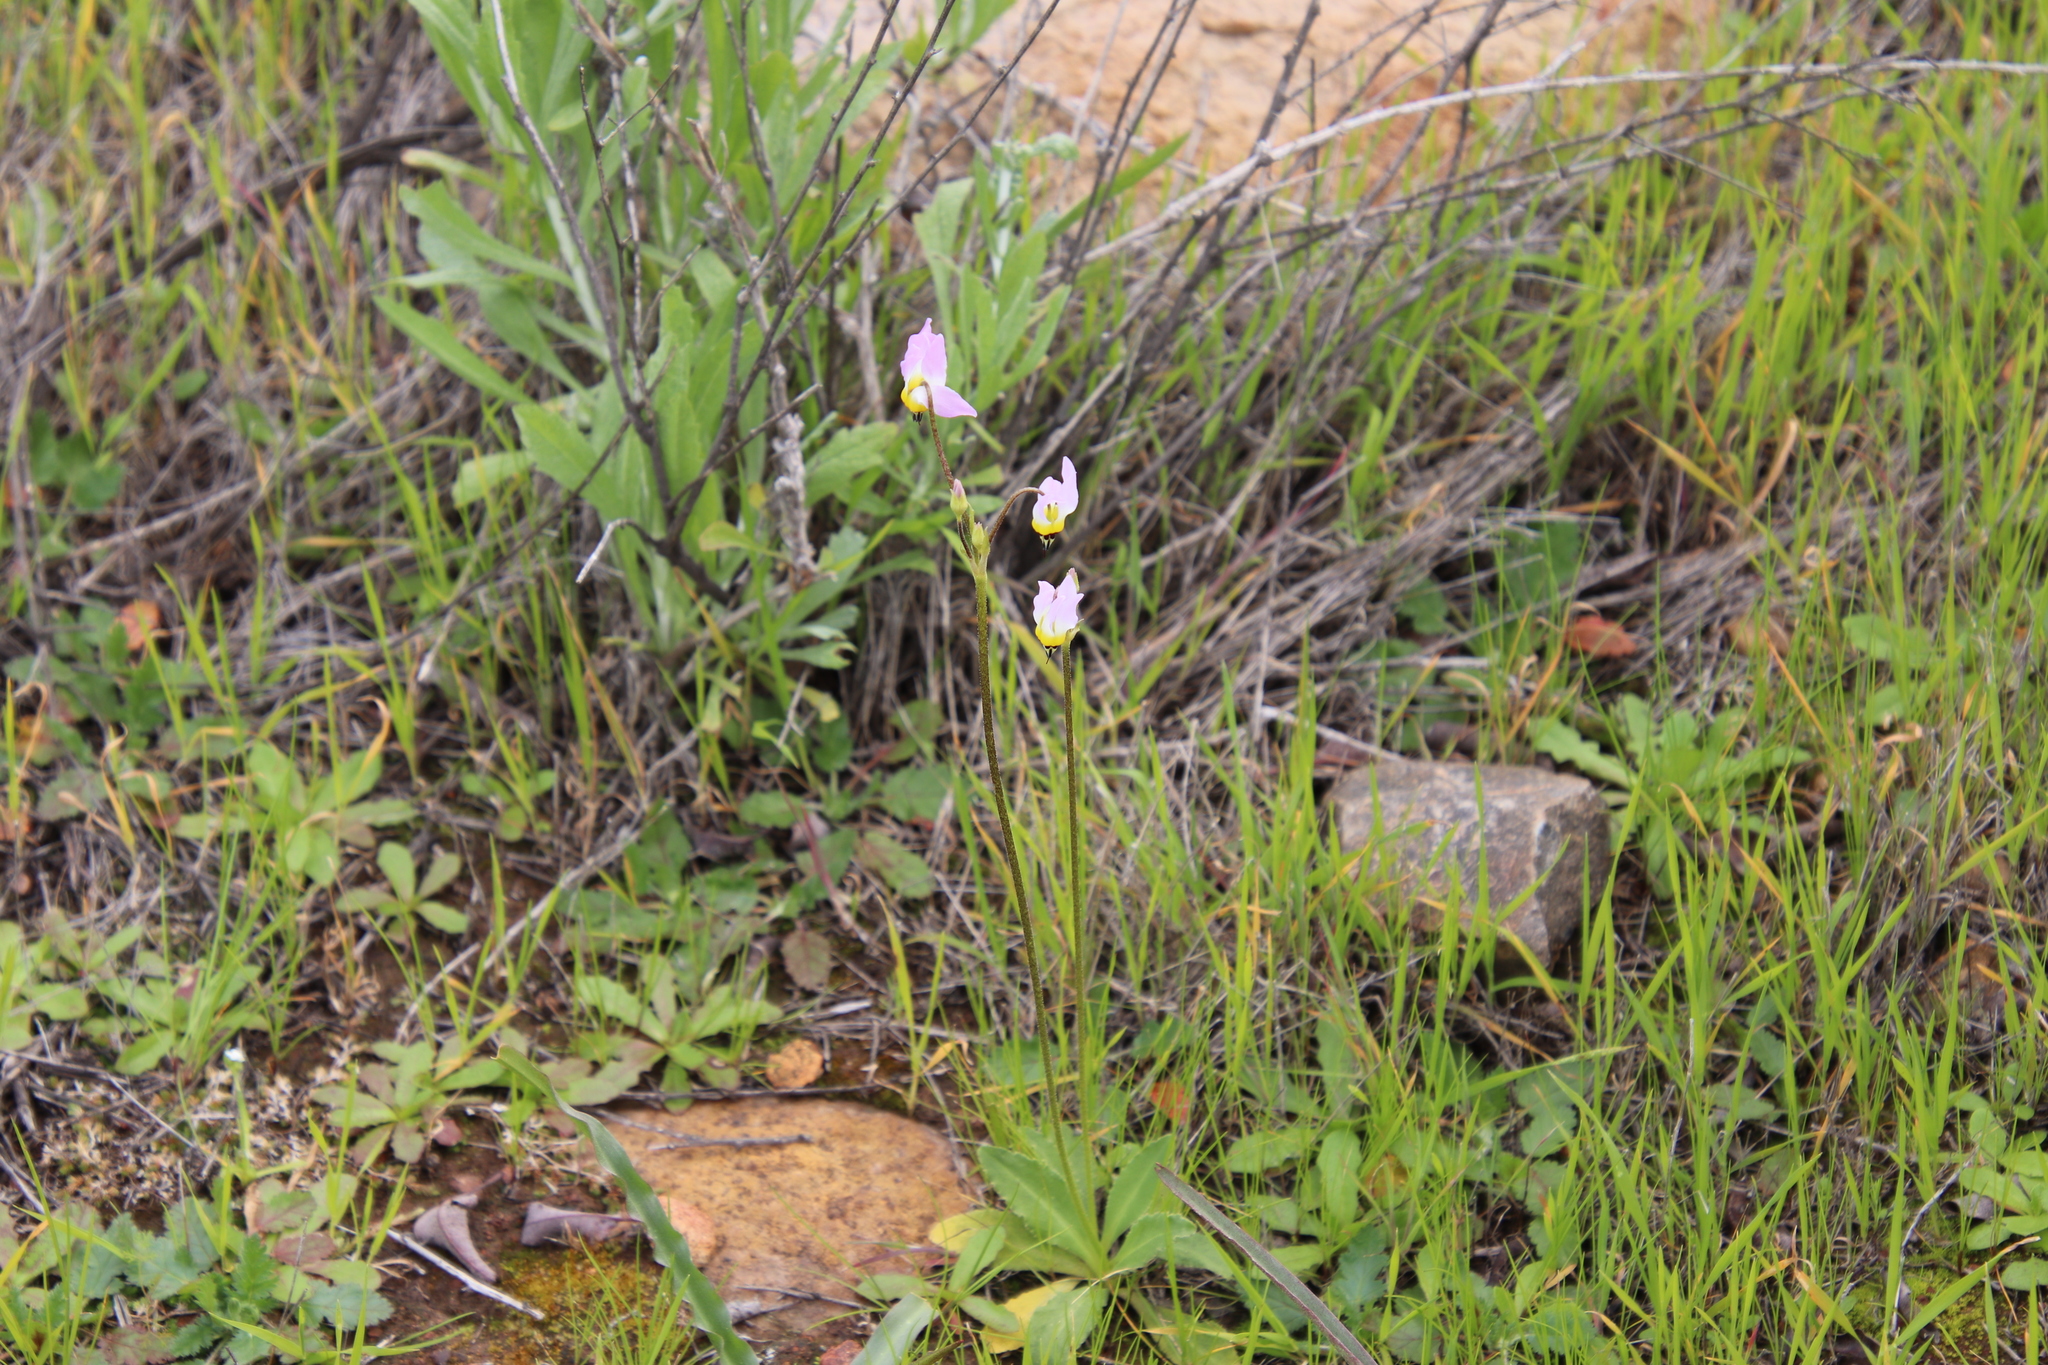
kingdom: Plantae
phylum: Tracheophyta
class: Magnoliopsida
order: Ericales
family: Primulaceae
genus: Dodecatheon
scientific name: Dodecatheon clevelandii
